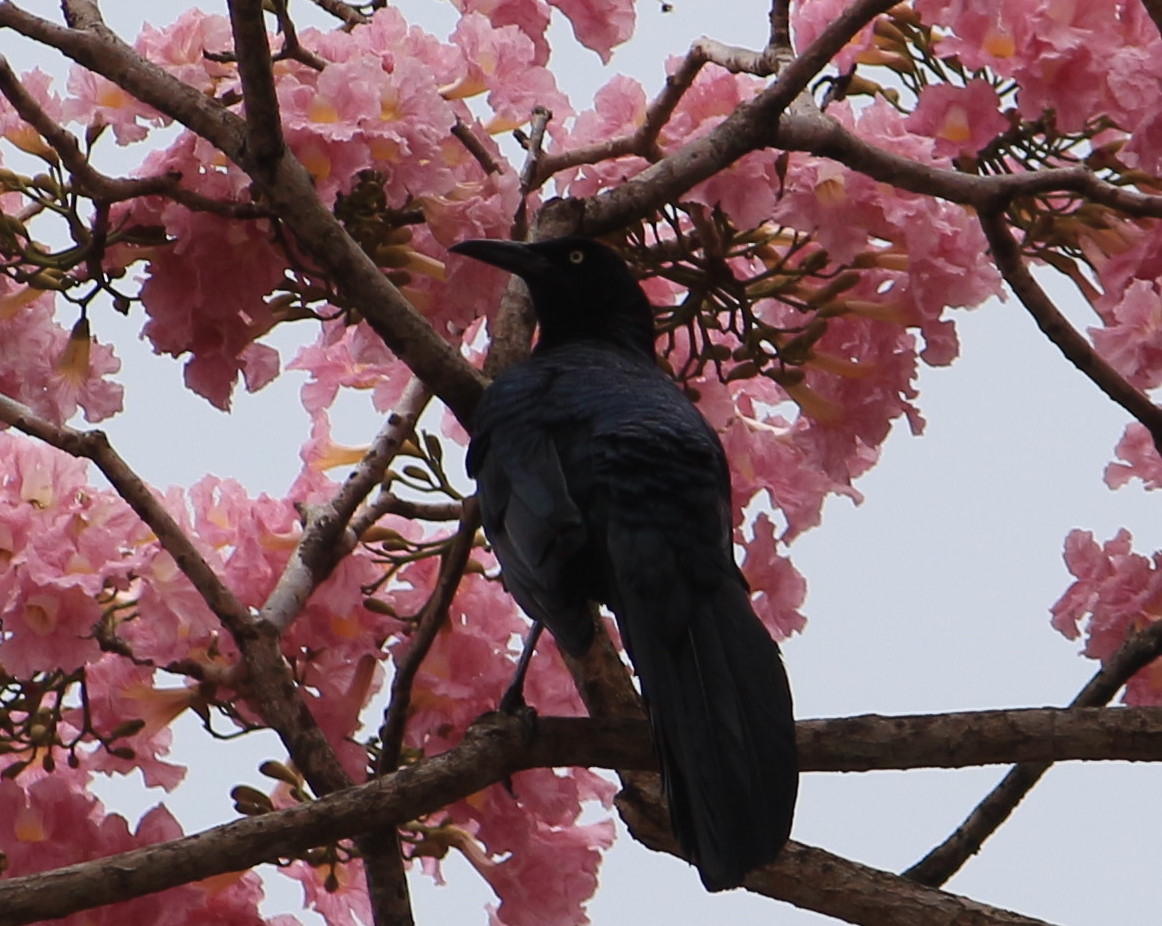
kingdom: Animalia
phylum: Chordata
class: Aves
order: Passeriformes
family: Icteridae
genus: Quiscalus
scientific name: Quiscalus mexicanus
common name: Great-tailed grackle
